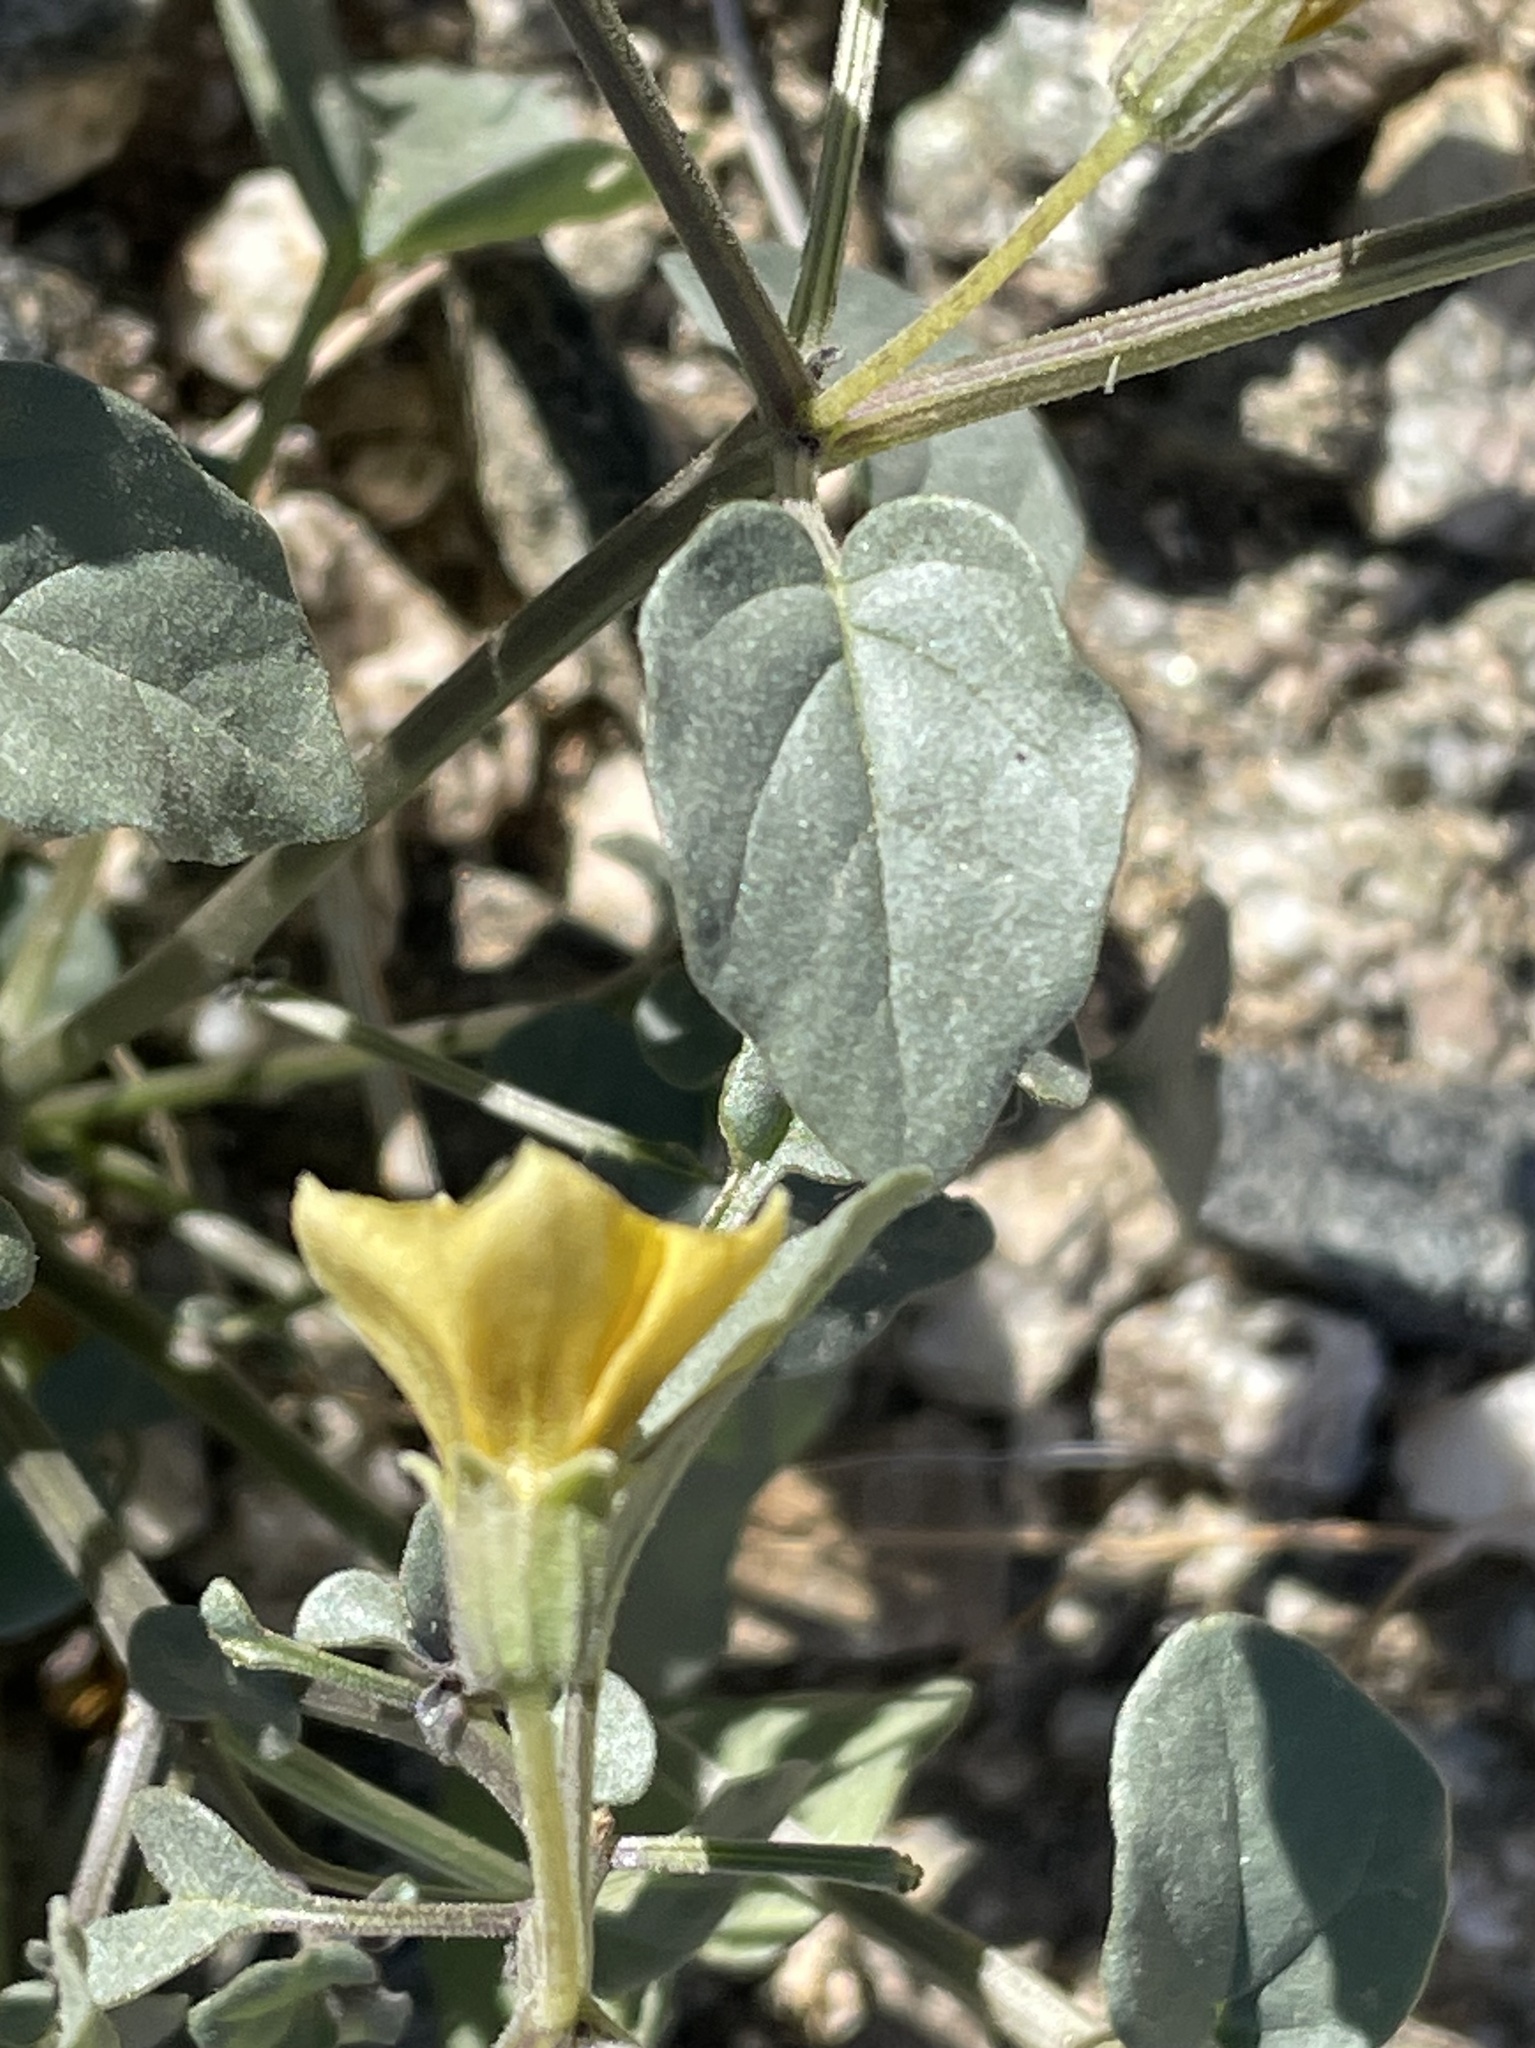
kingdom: Plantae
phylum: Tracheophyta
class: Magnoliopsida
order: Solanales
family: Solanaceae
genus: Physalis
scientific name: Physalis crassifolia
